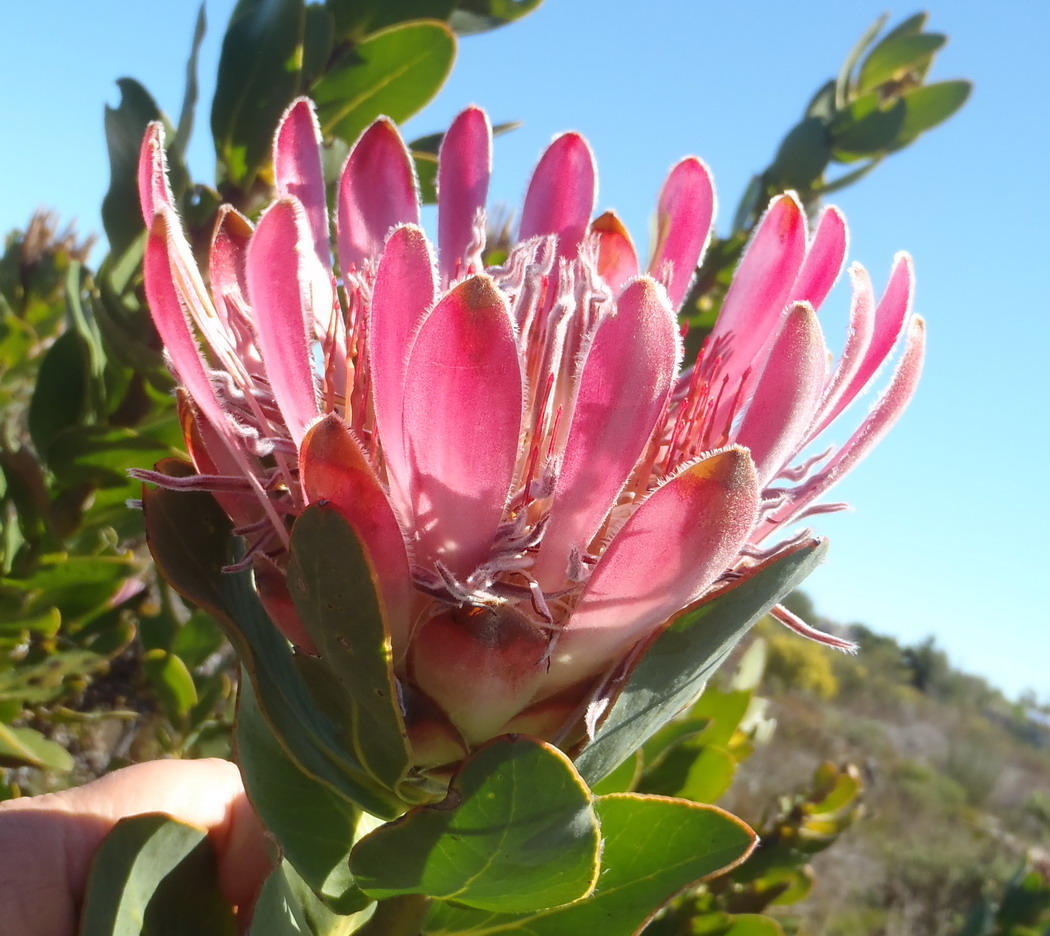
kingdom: Plantae
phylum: Tracheophyta
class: Magnoliopsida
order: Proteales
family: Proteaceae
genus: Protea
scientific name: Protea compacta
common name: Bot river protea
